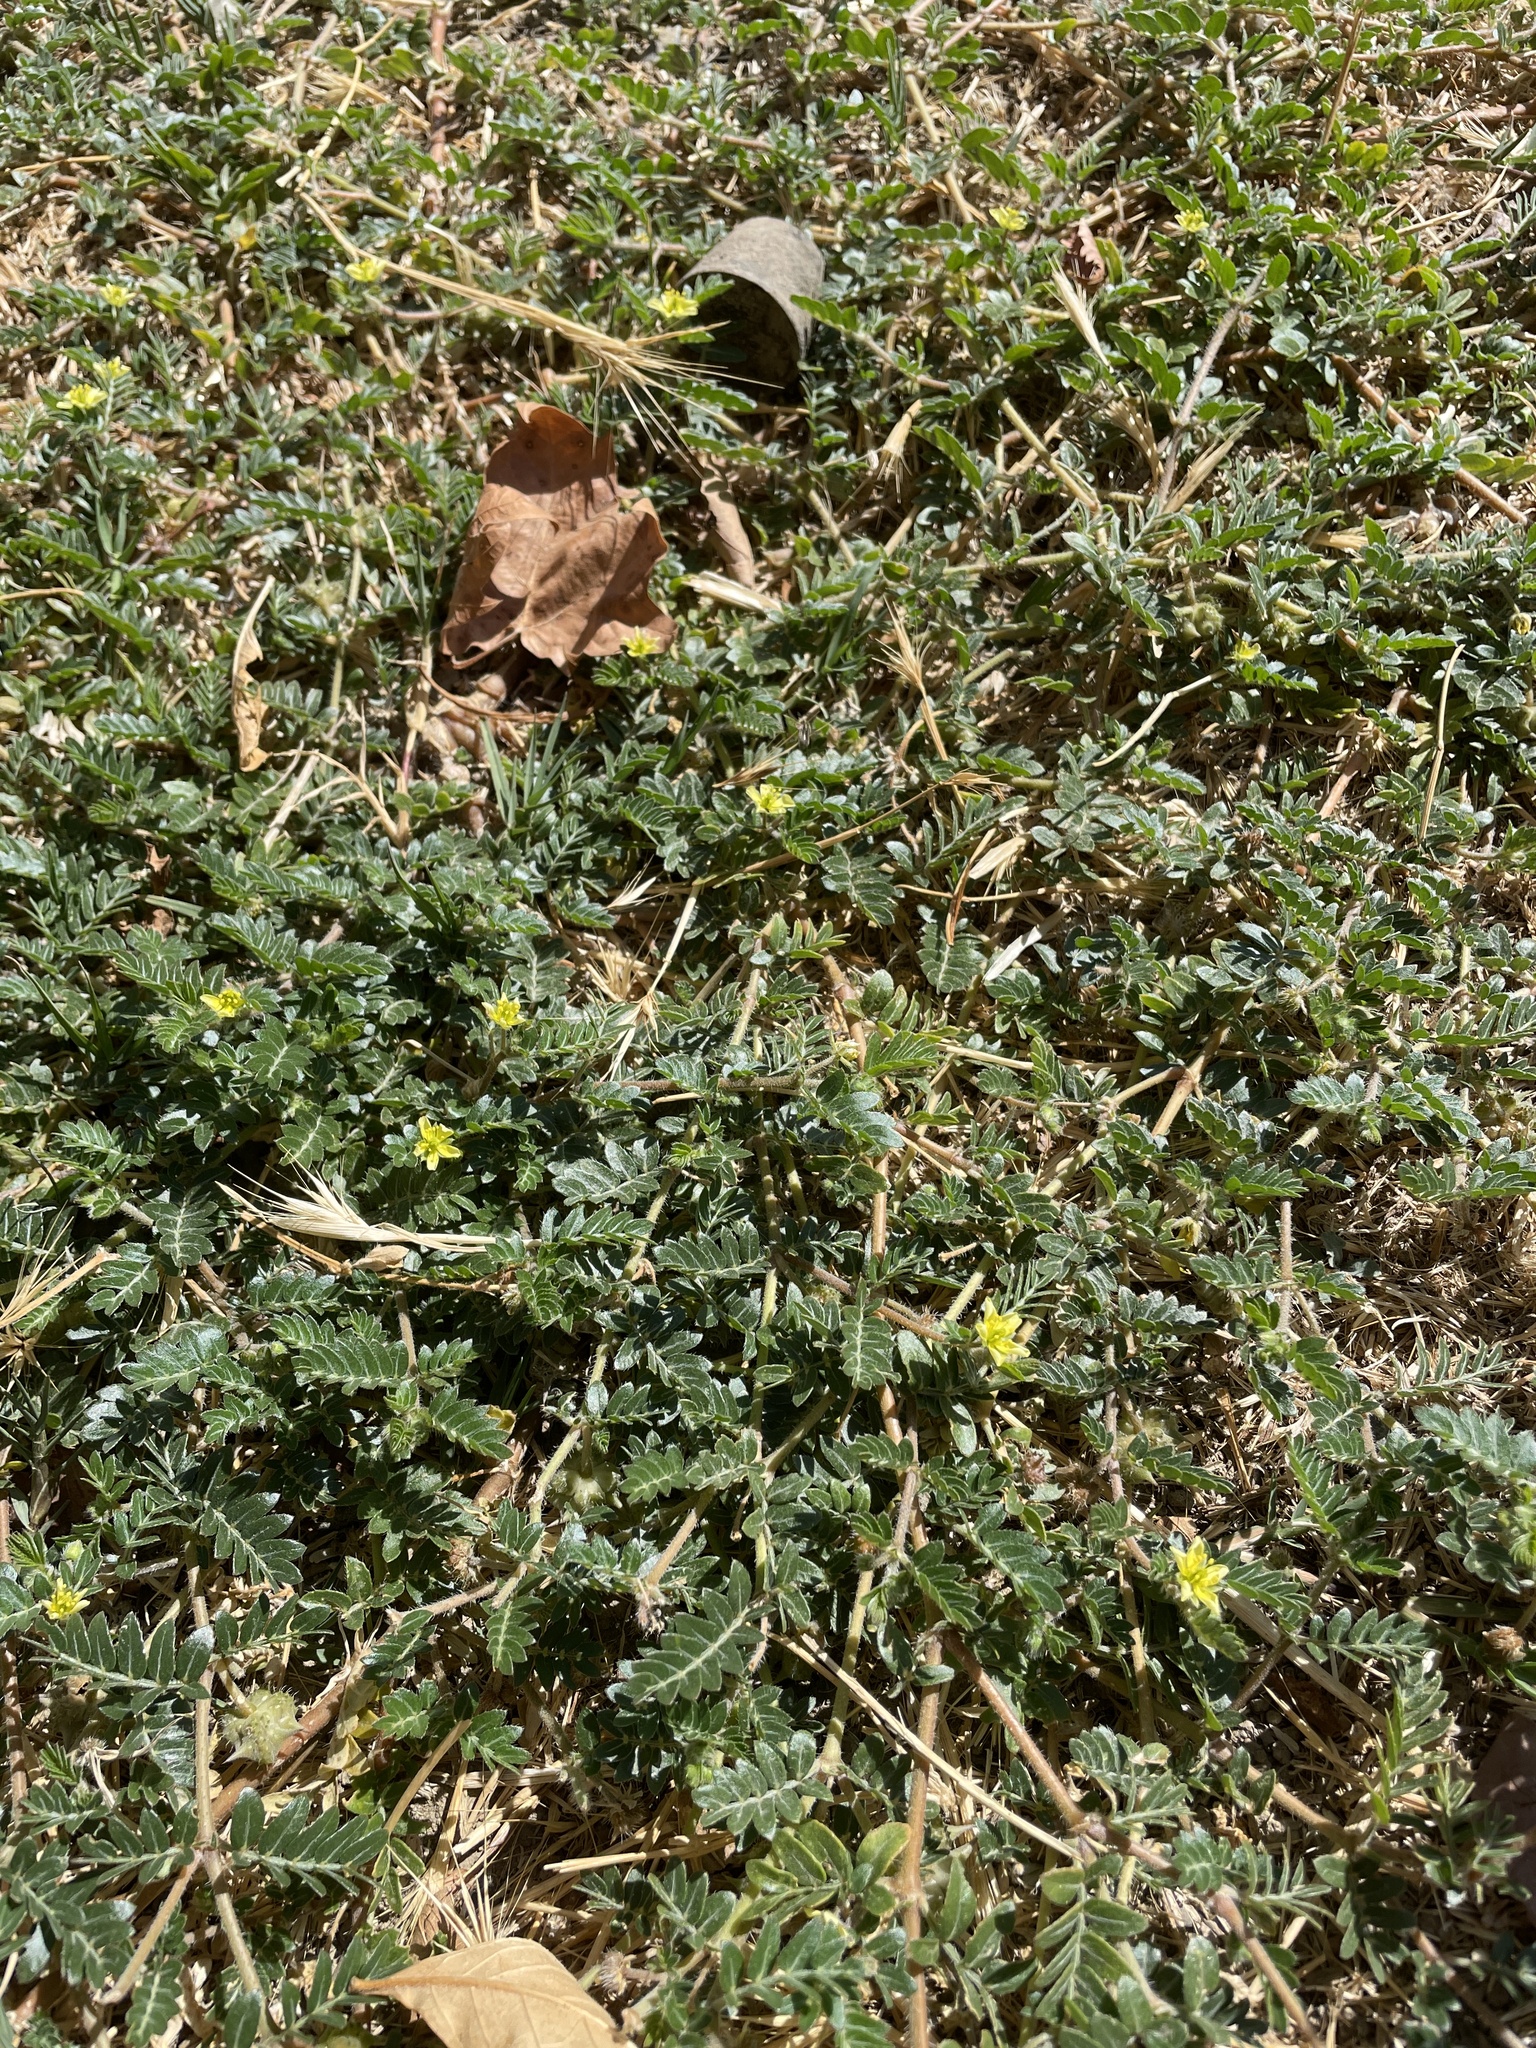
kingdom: Plantae
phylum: Tracheophyta
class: Magnoliopsida
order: Zygophyllales
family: Zygophyllaceae
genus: Tribulus
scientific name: Tribulus terrestris
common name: Puncturevine
